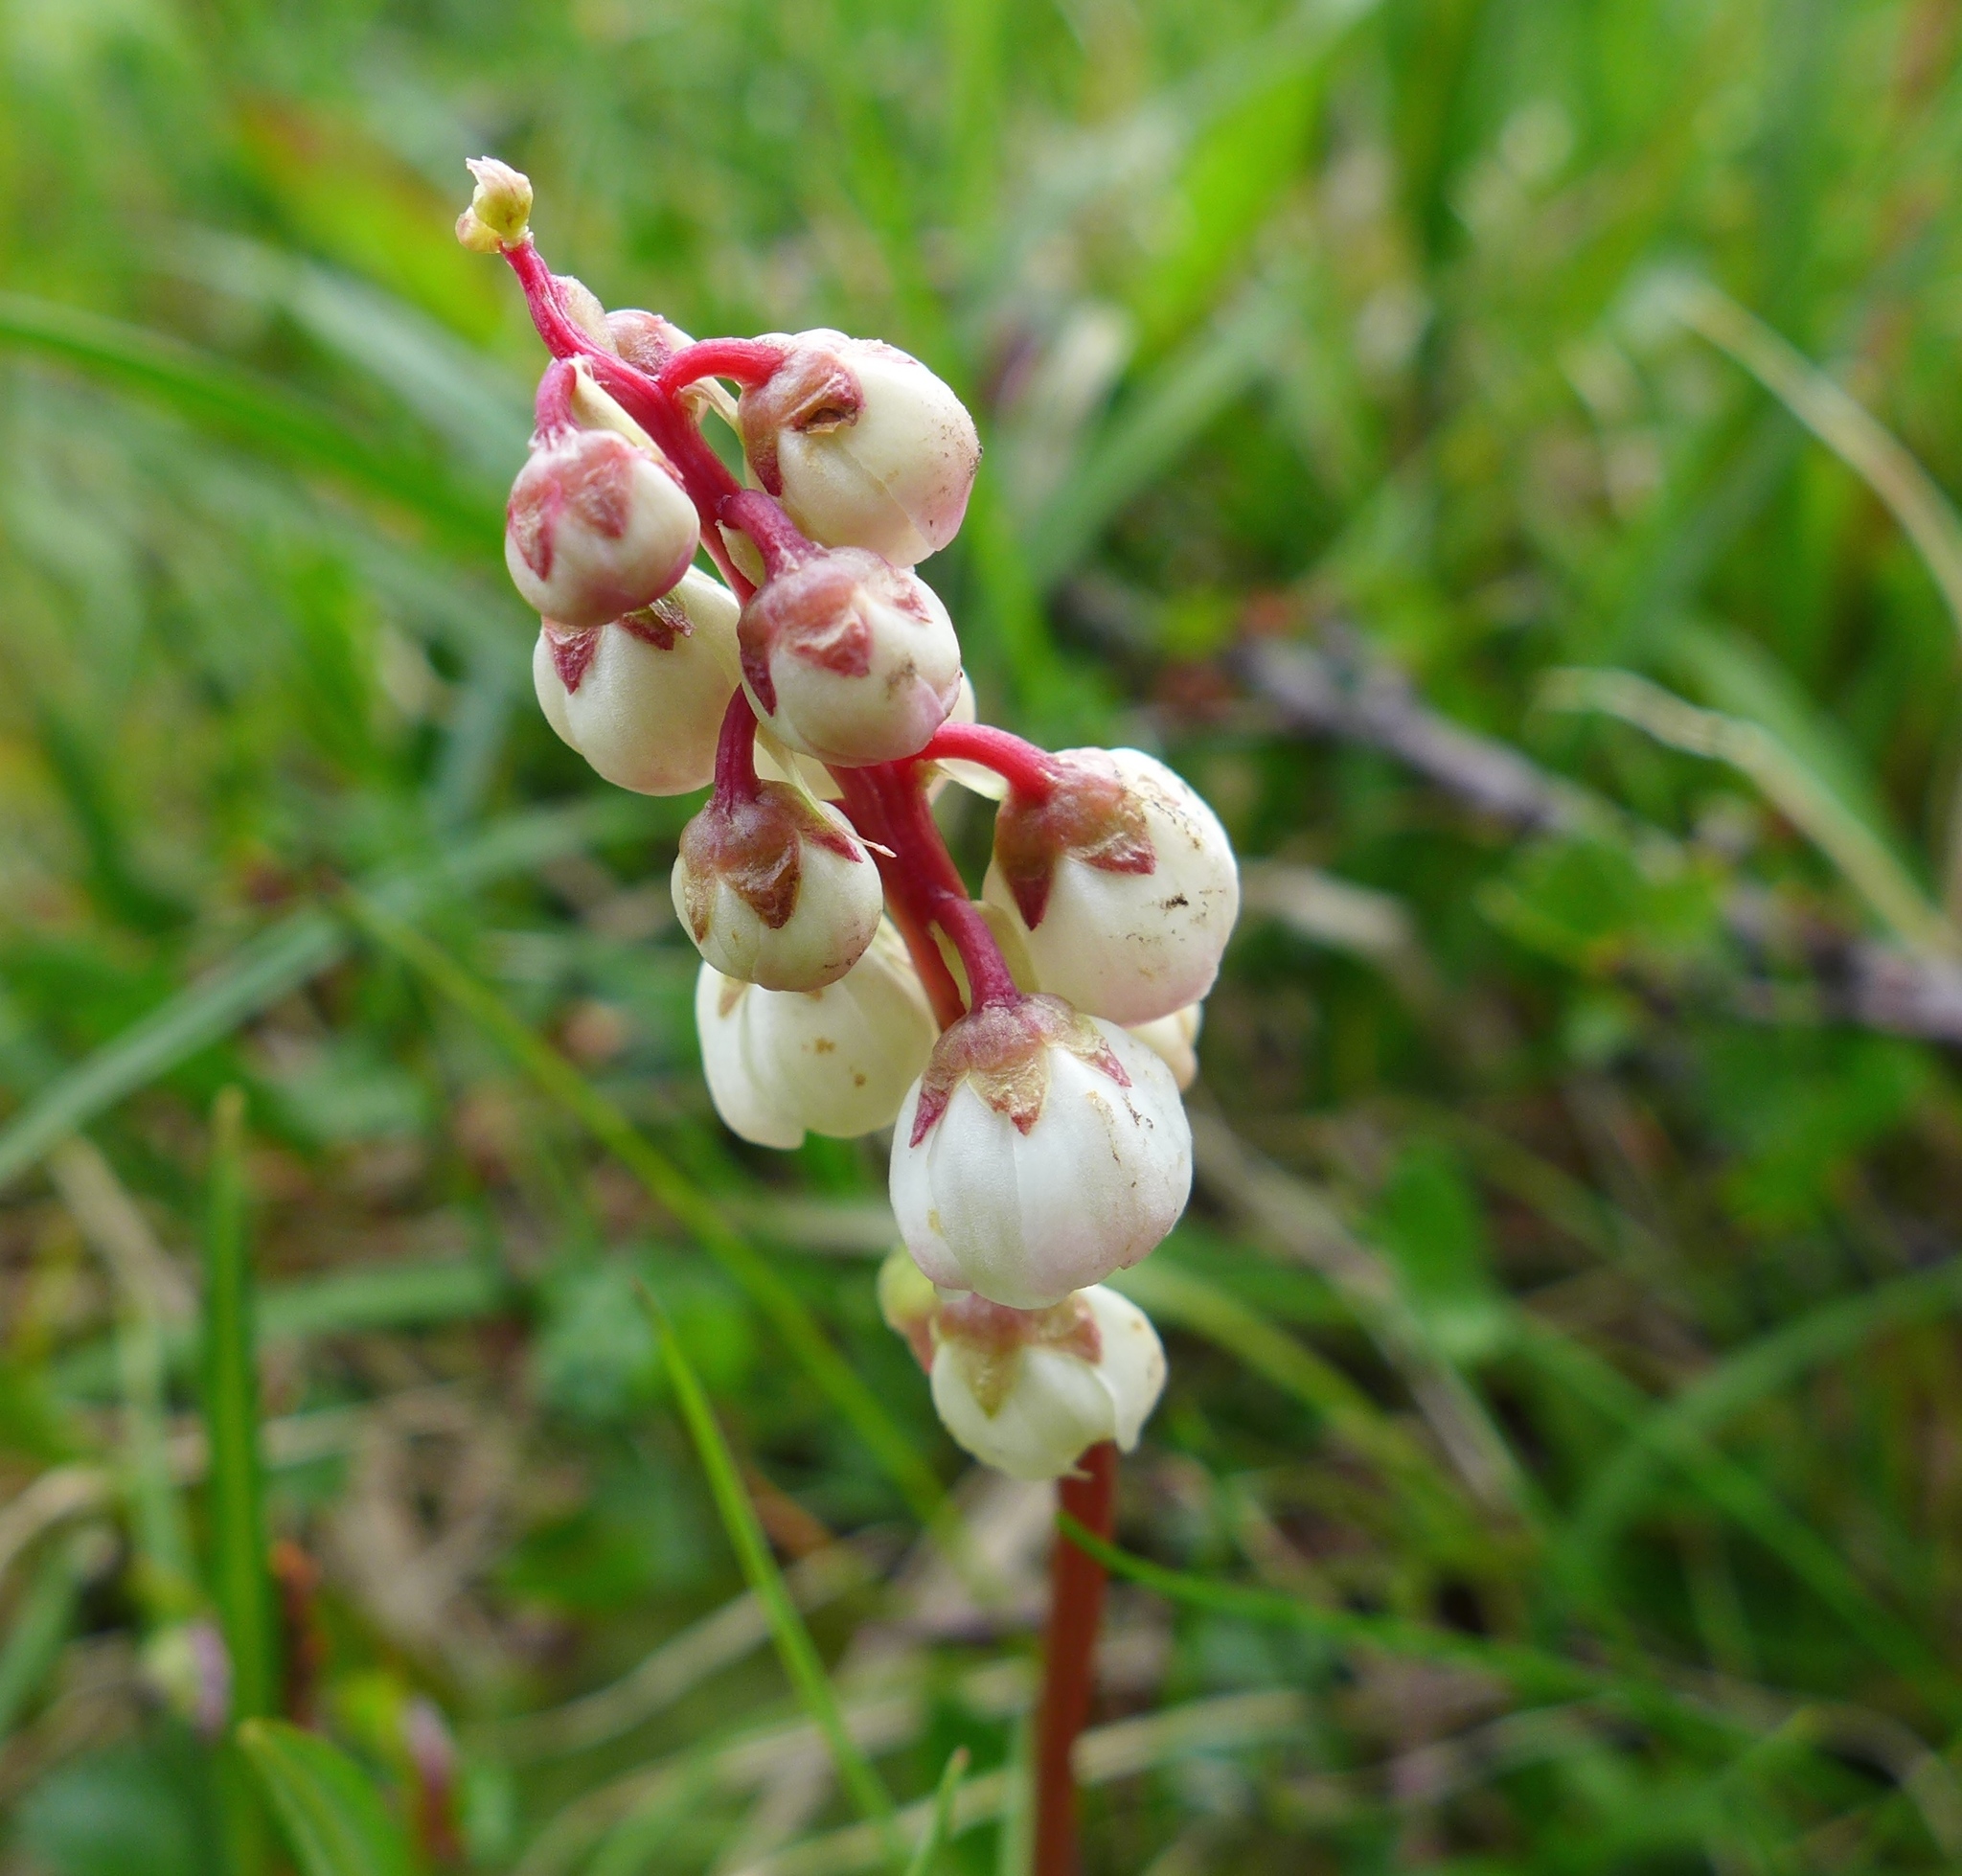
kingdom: Plantae
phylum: Tracheophyta
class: Magnoliopsida
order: Ericales
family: Ericaceae
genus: Pyrola
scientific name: Pyrola minor
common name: Common wintergreen
